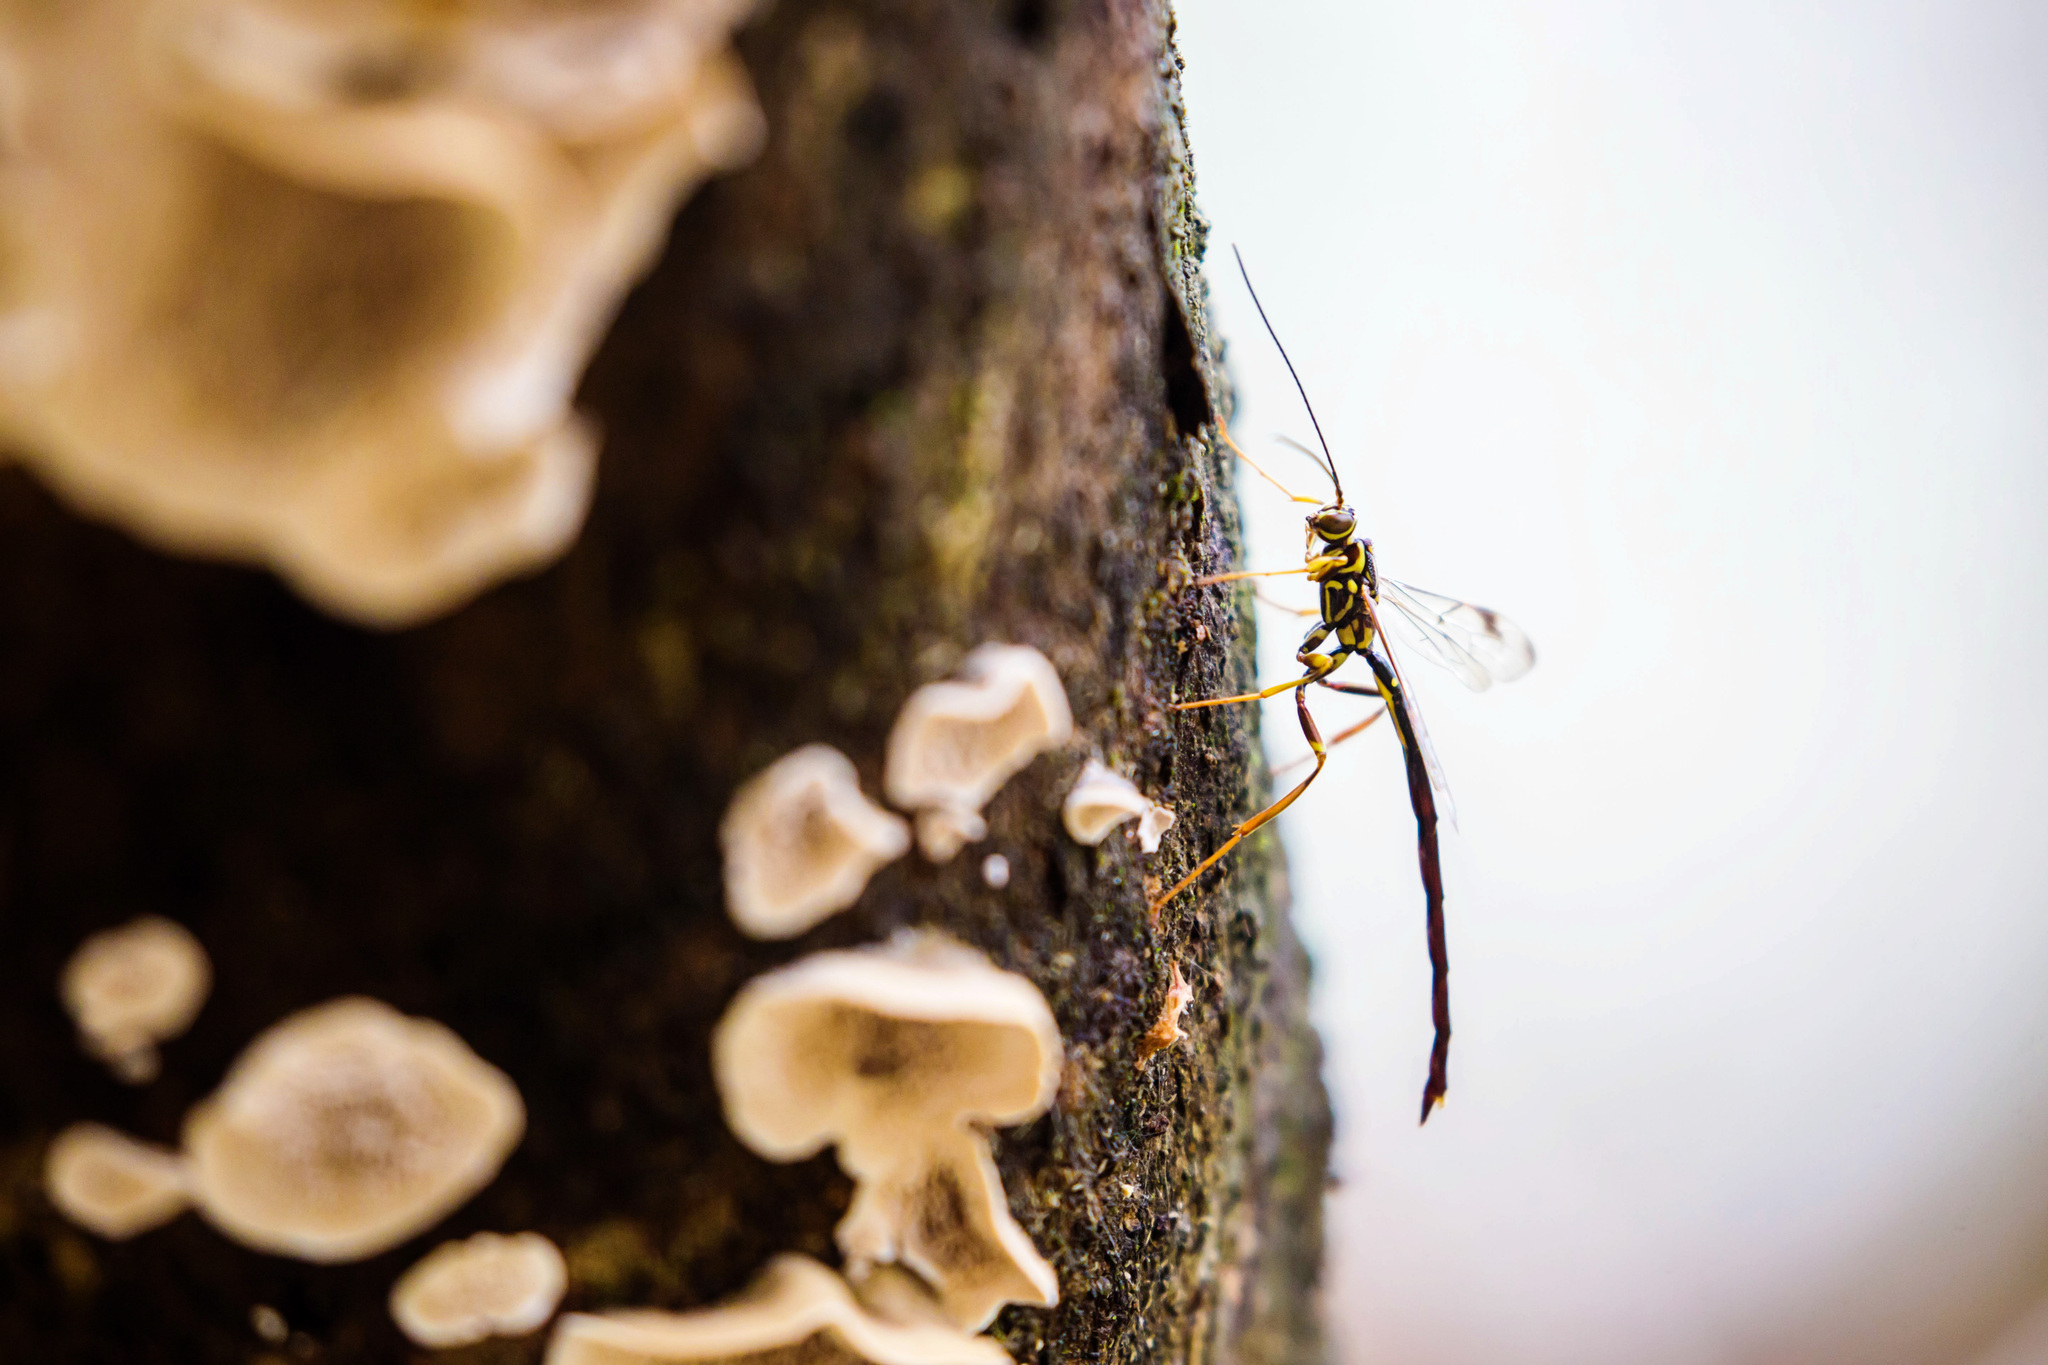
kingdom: Animalia
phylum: Arthropoda
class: Insecta
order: Hymenoptera
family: Ichneumonidae
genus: Megarhyssa
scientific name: Megarhyssa macrura
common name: Long-tailed giant ichneumonid wasp
